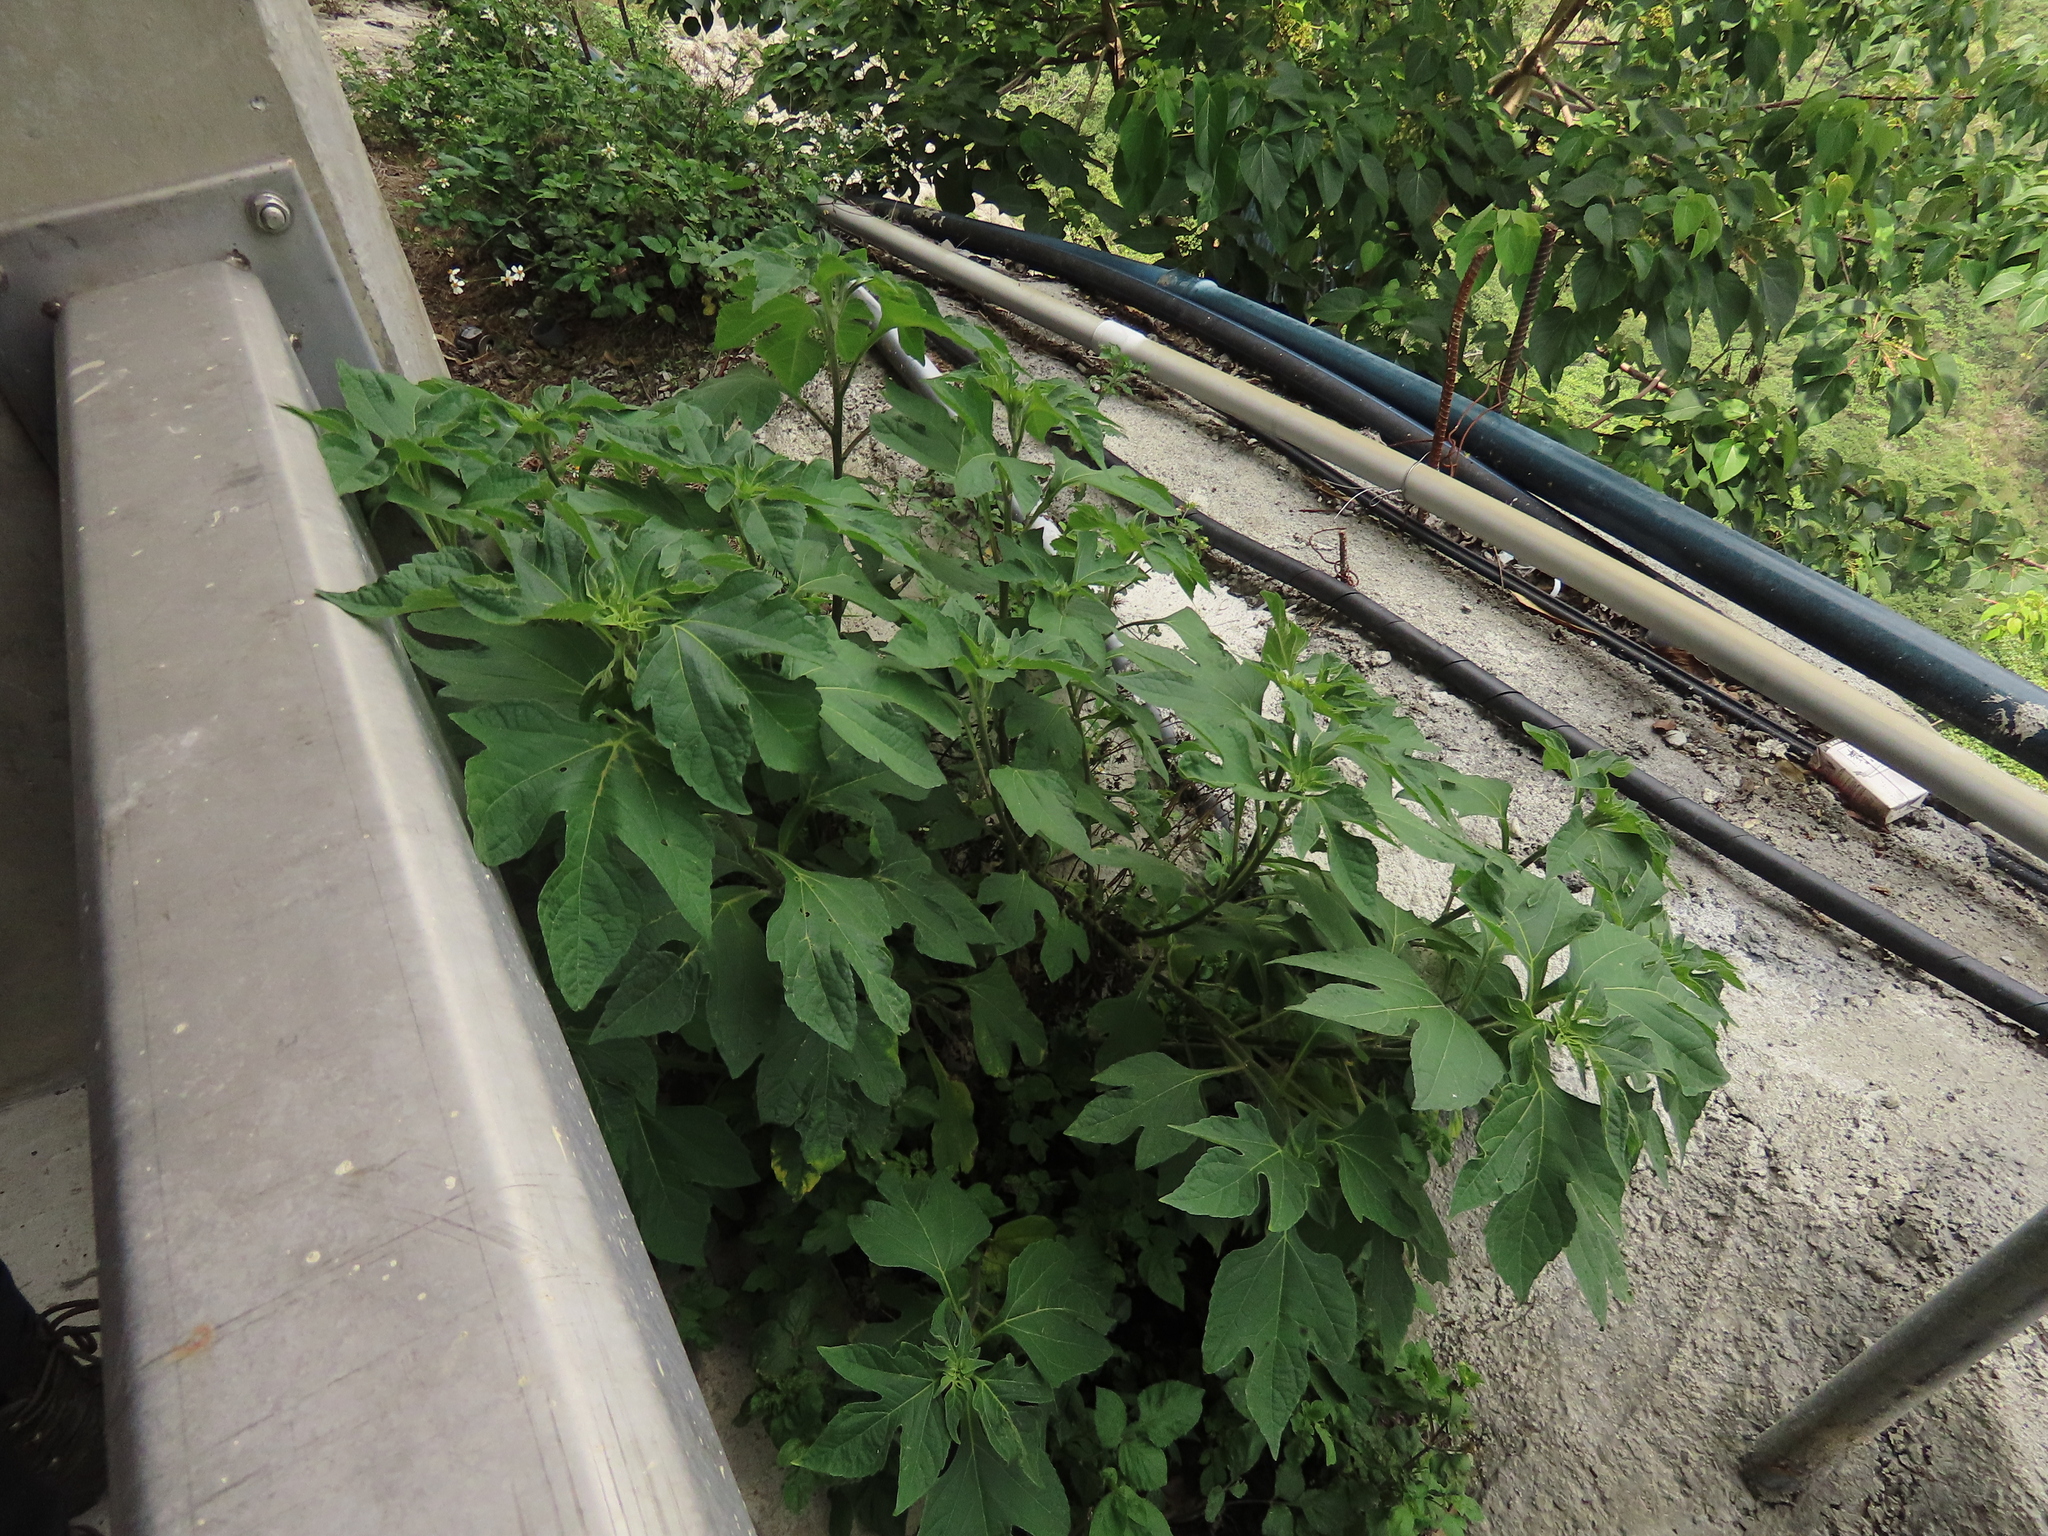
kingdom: Plantae
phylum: Tracheophyta
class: Magnoliopsida
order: Asterales
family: Asteraceae
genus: Tithonia
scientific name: Tithonia diversifolia
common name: Tree marigold
